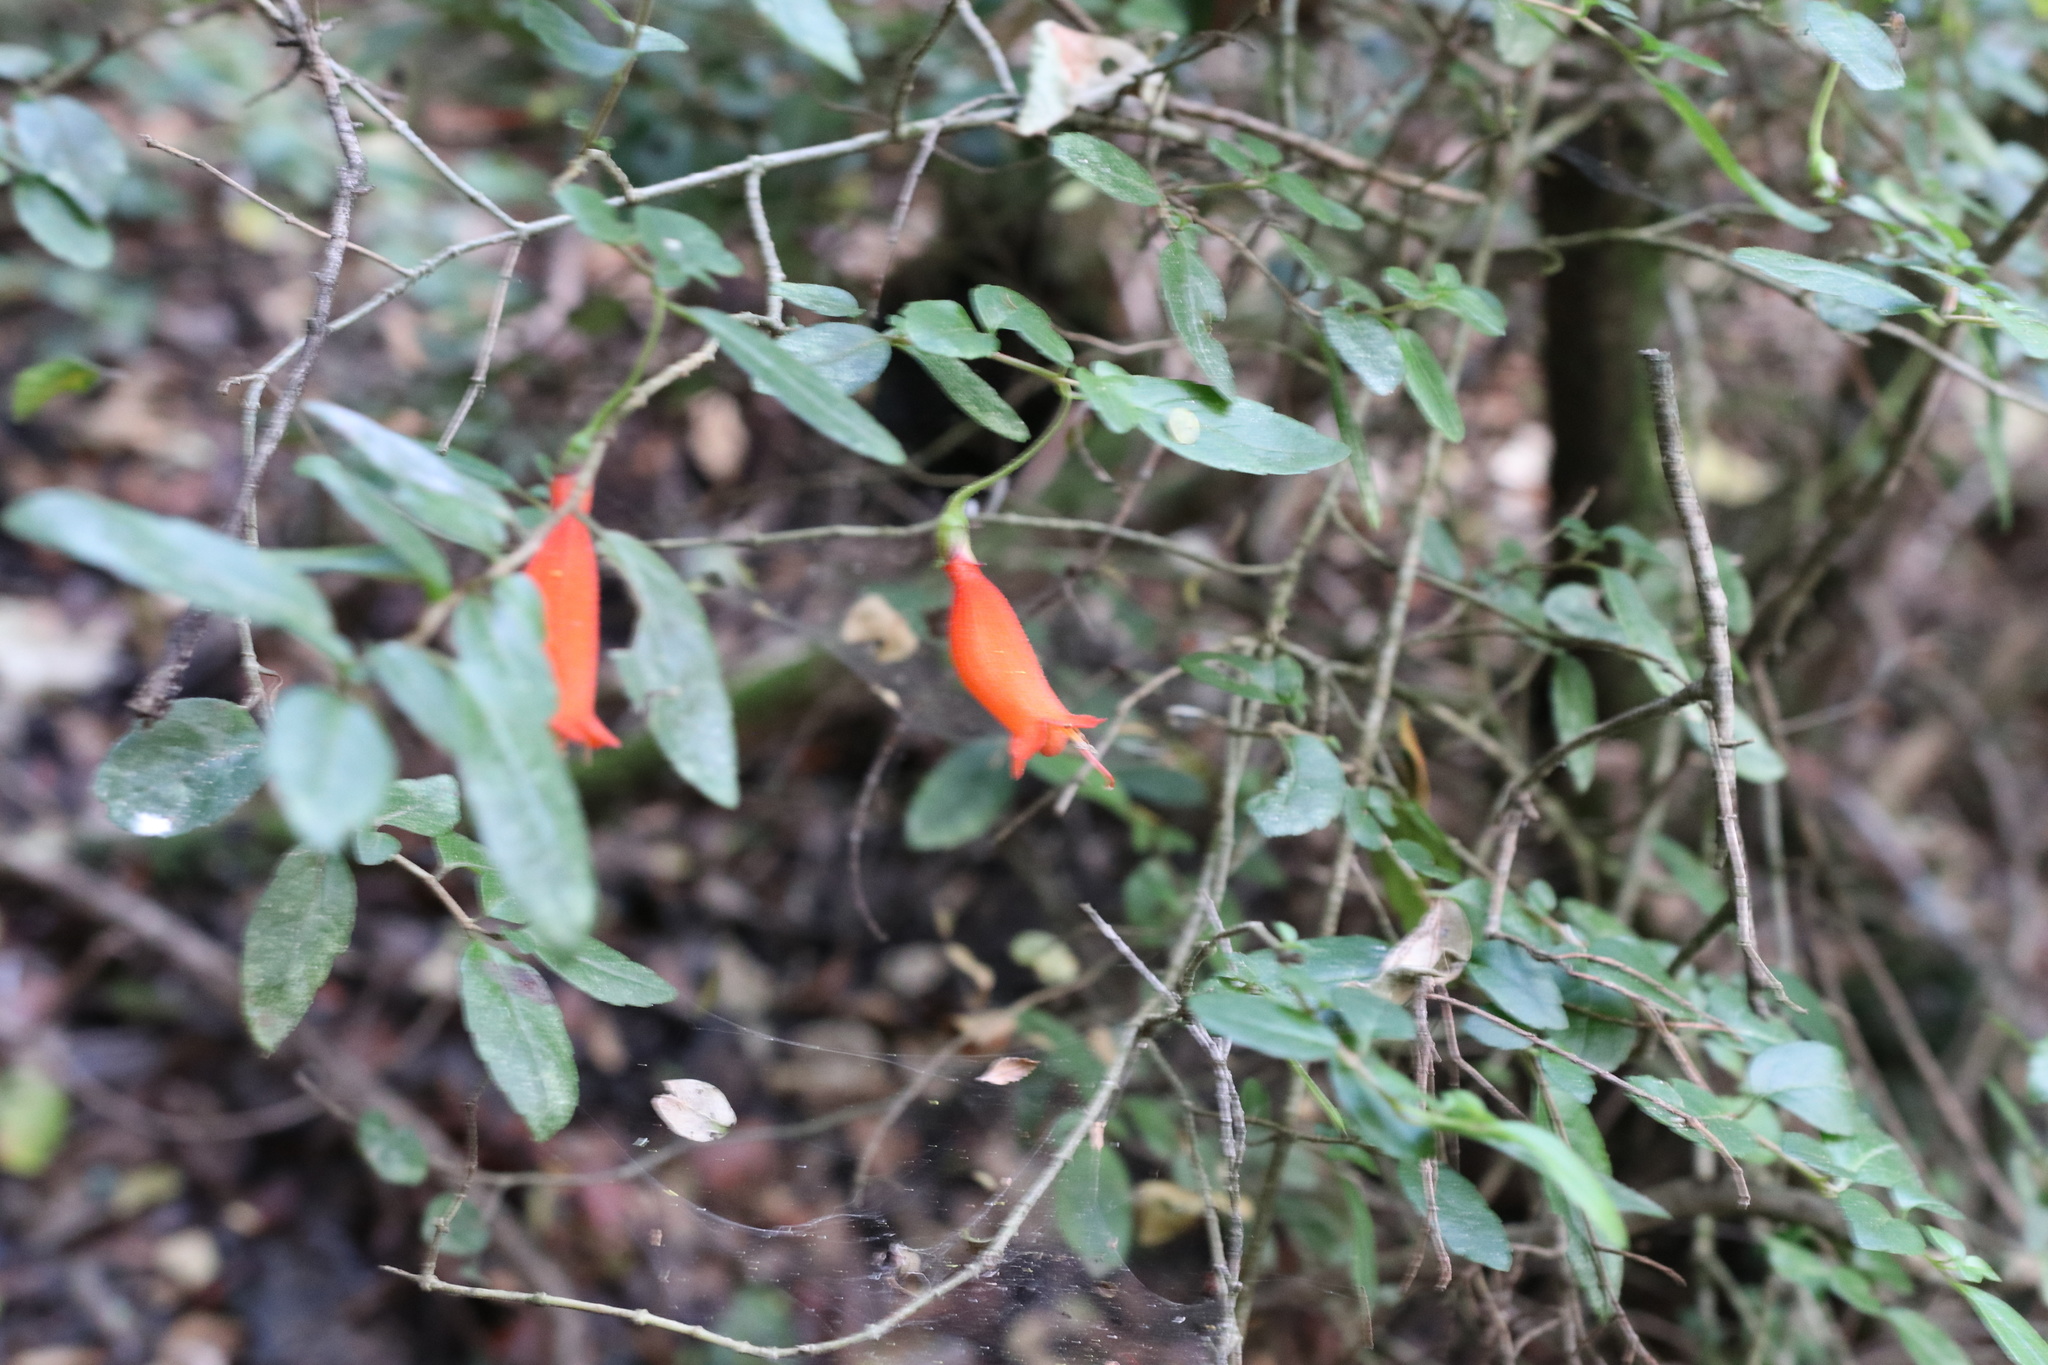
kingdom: Plantae
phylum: Tracheophyta
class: Magnoliopsida
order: Lamiales
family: Gesneriaceae
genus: Mitraria
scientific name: Mitraria coccinea
